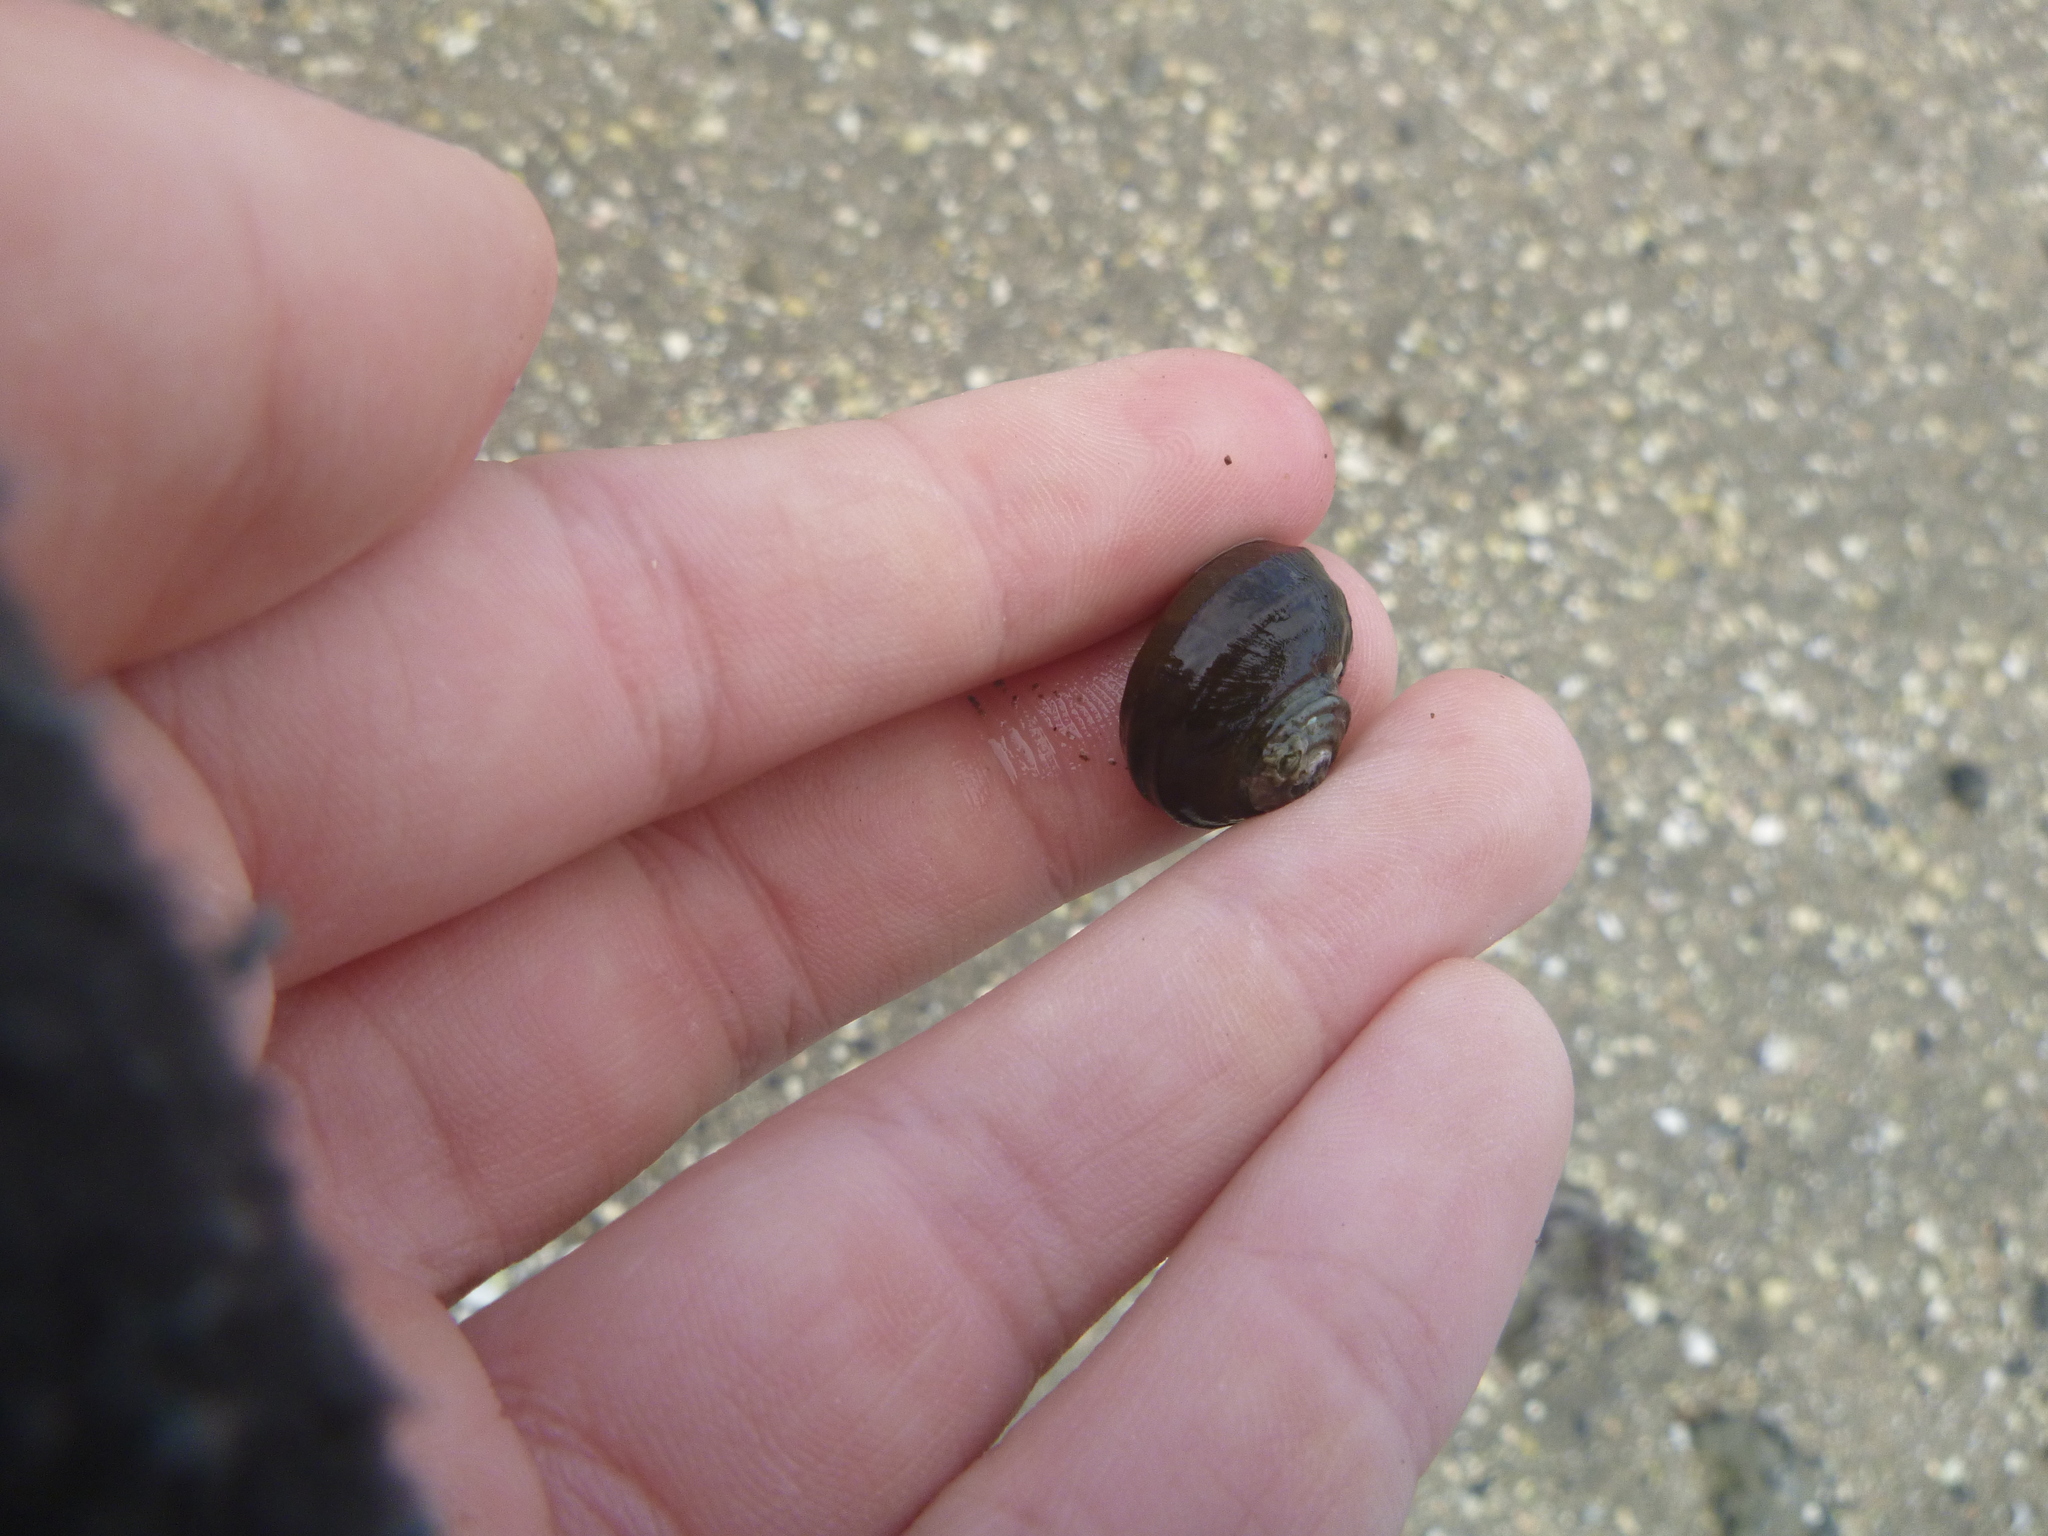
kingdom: Animalia
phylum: Mollusca
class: Gastropoda
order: Trochida
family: Turbinidae
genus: Lunella
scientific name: Lunella smaragda
